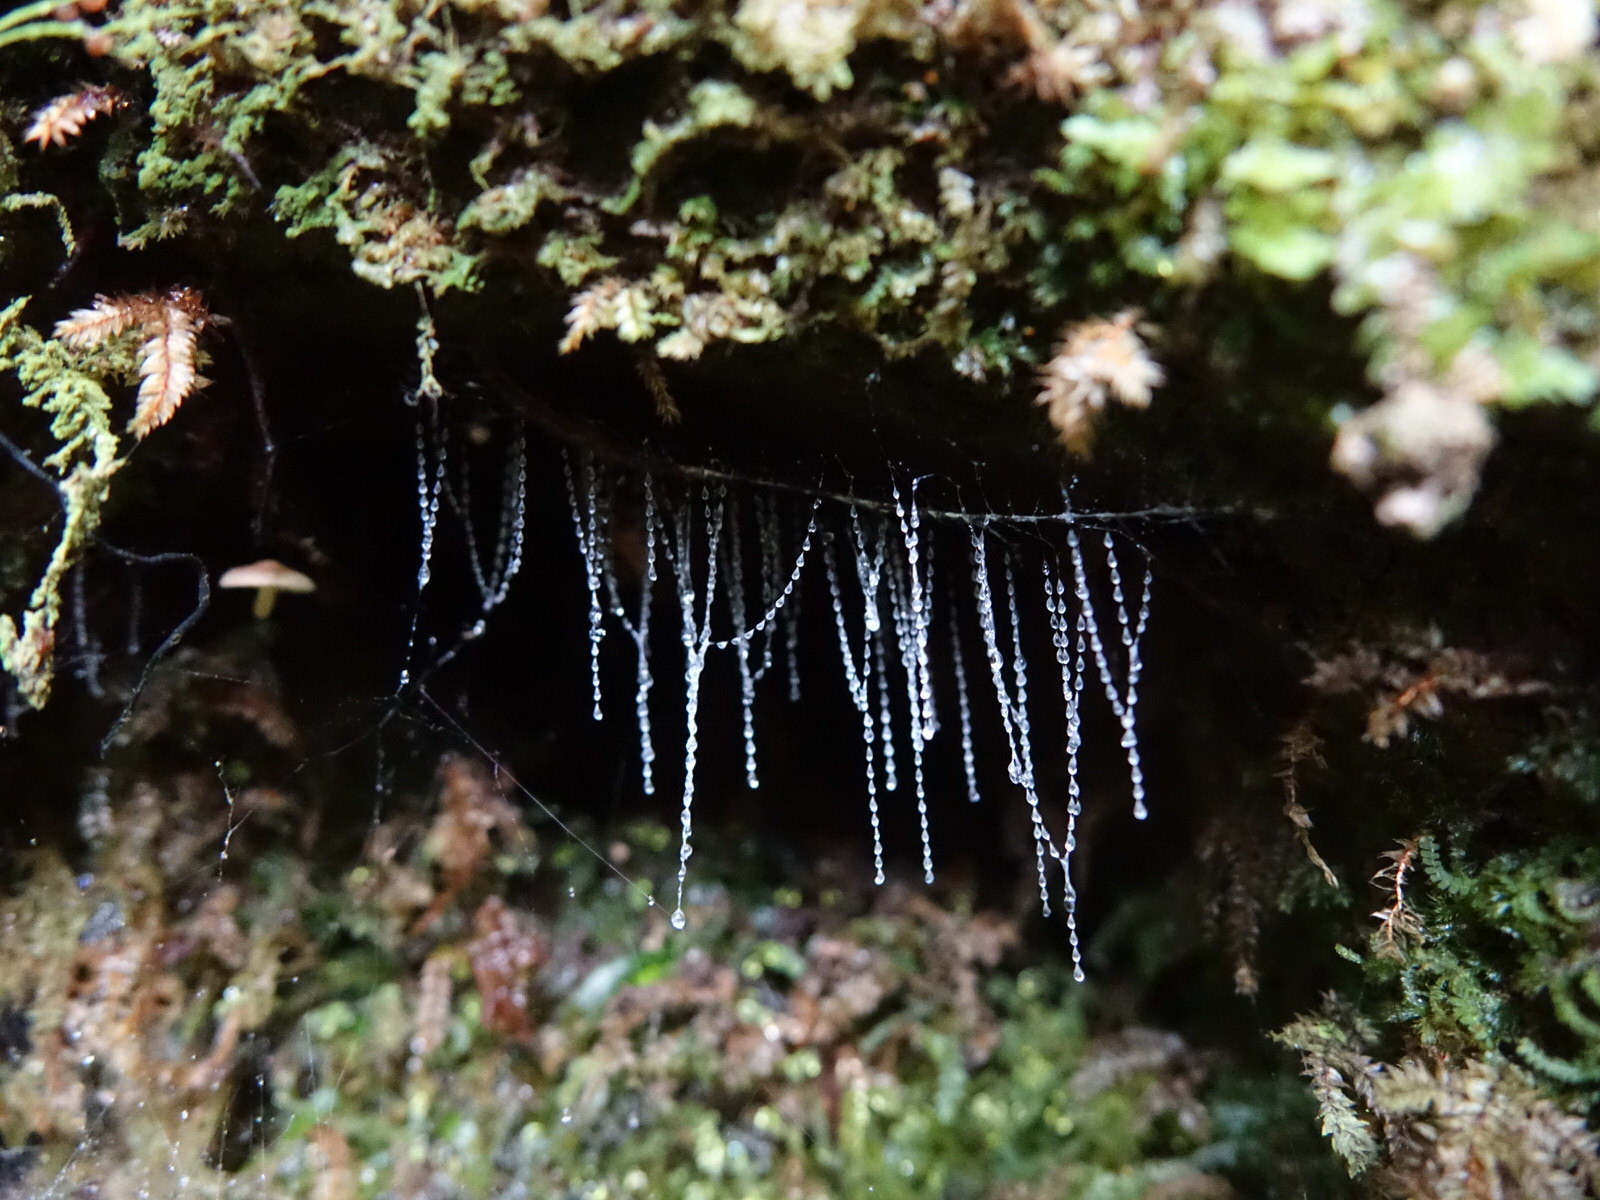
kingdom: Animalia
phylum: Arthropoda
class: Insecta
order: Diptera
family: Keroplatidae
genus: Arachnocampa
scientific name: Arachnocampa luminosa
